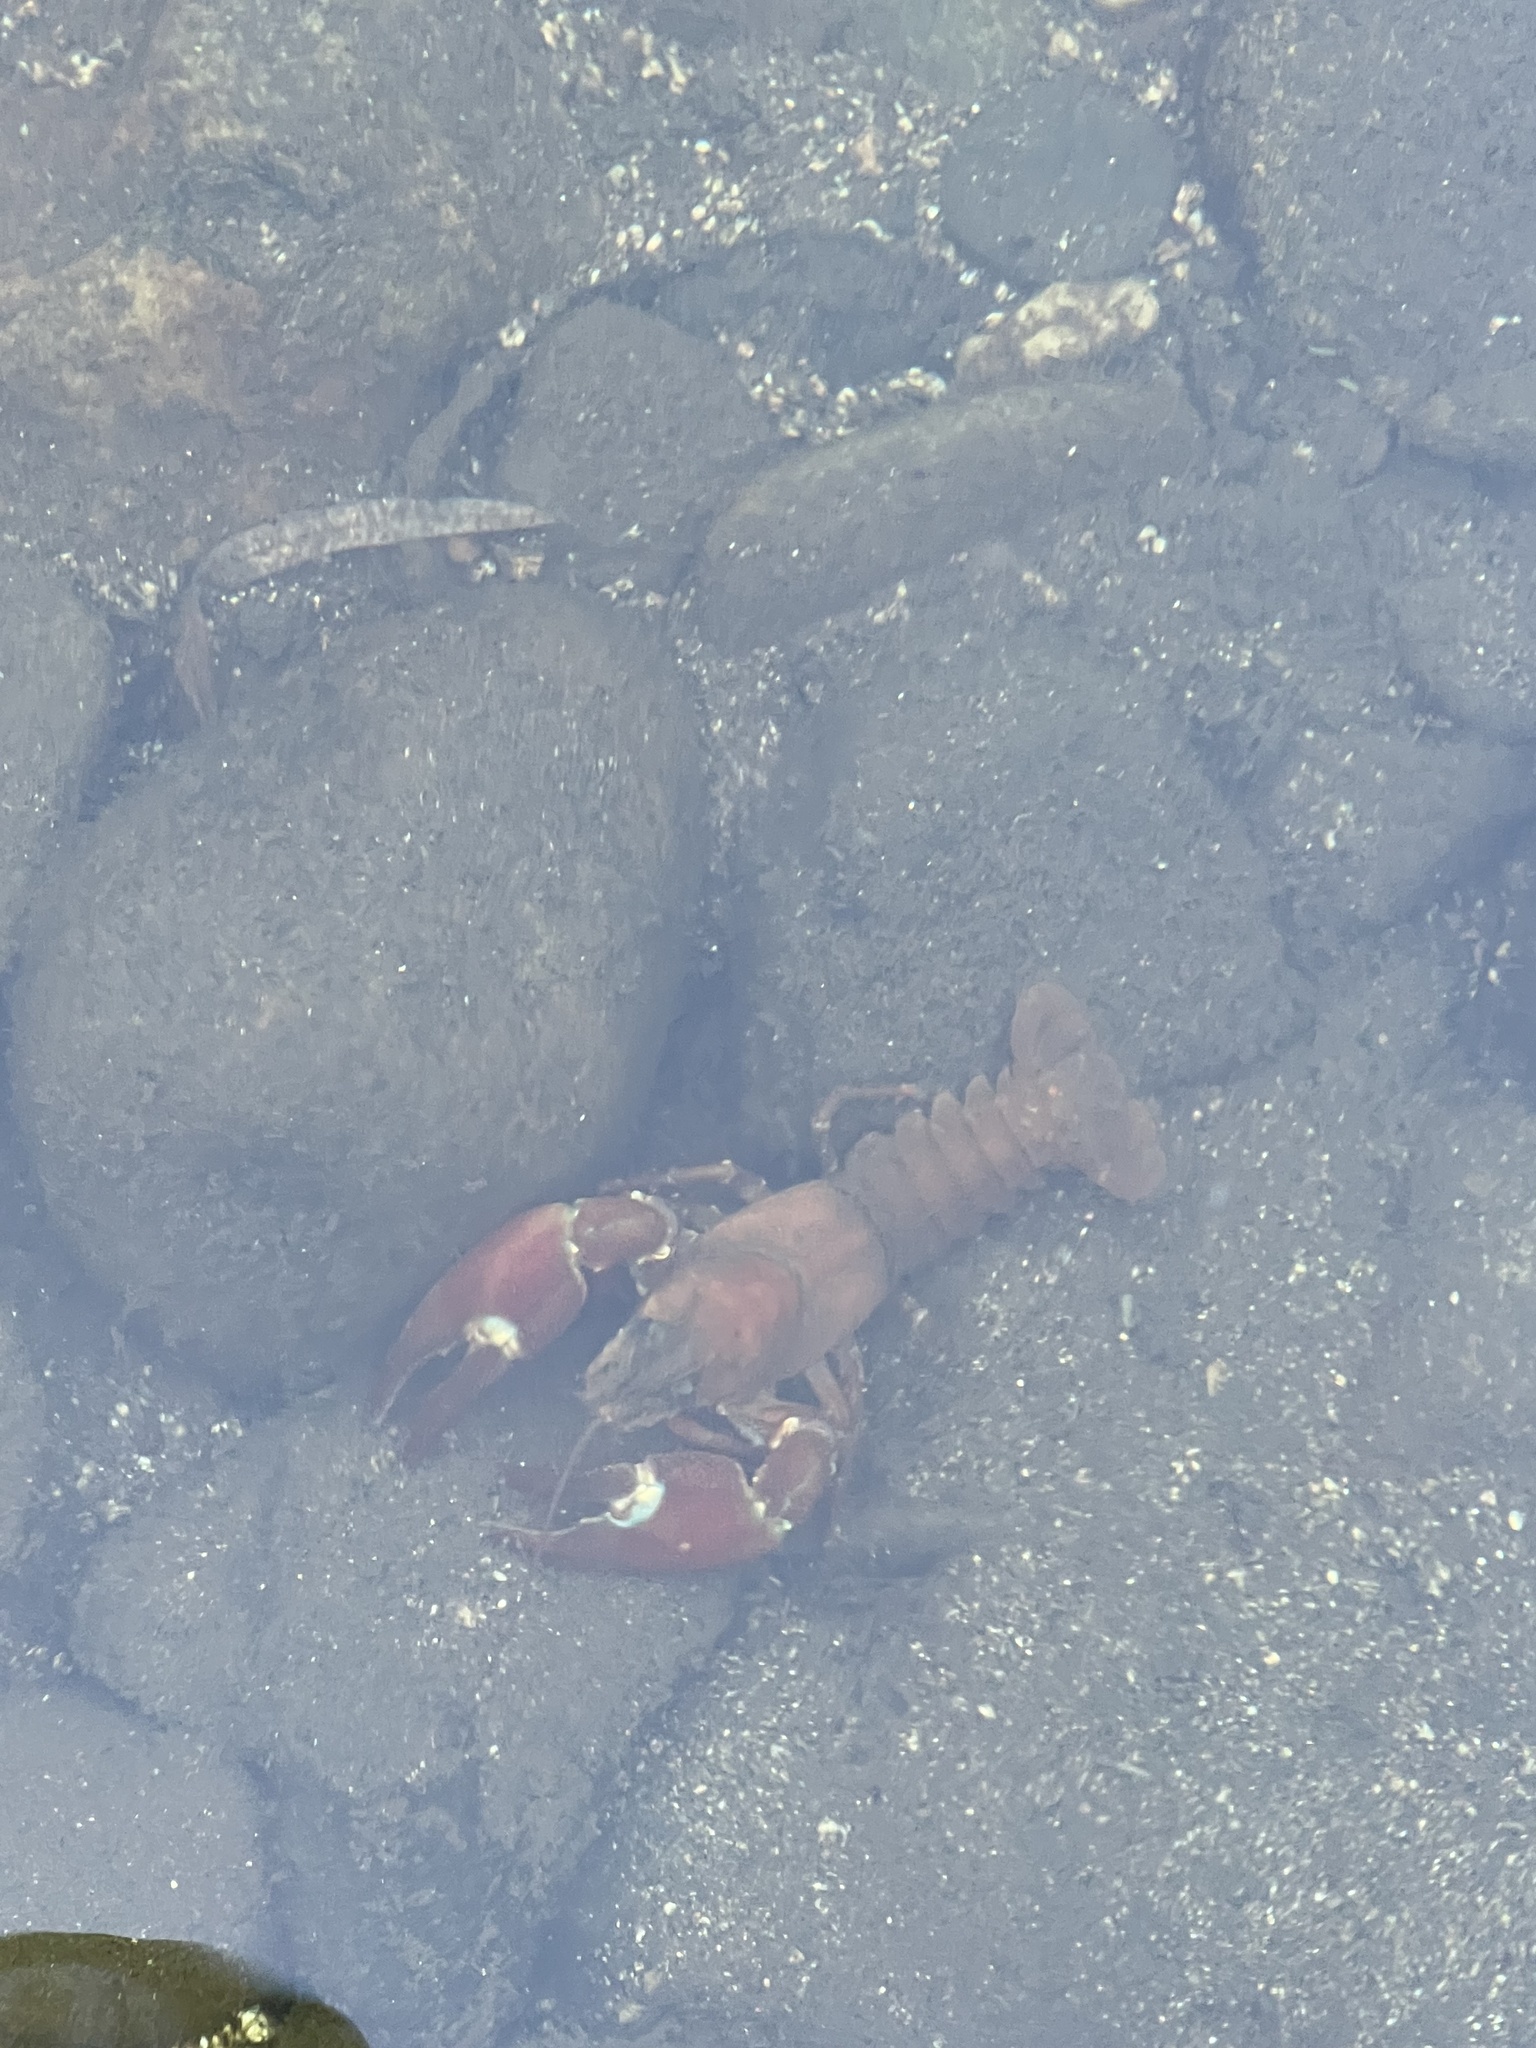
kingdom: Animalia
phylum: Arthropoda
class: Malacostraca
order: Decapoda
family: Astacidae
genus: Pacifastacus
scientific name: Pacifastacus leniusculus
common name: Signal crayfish
